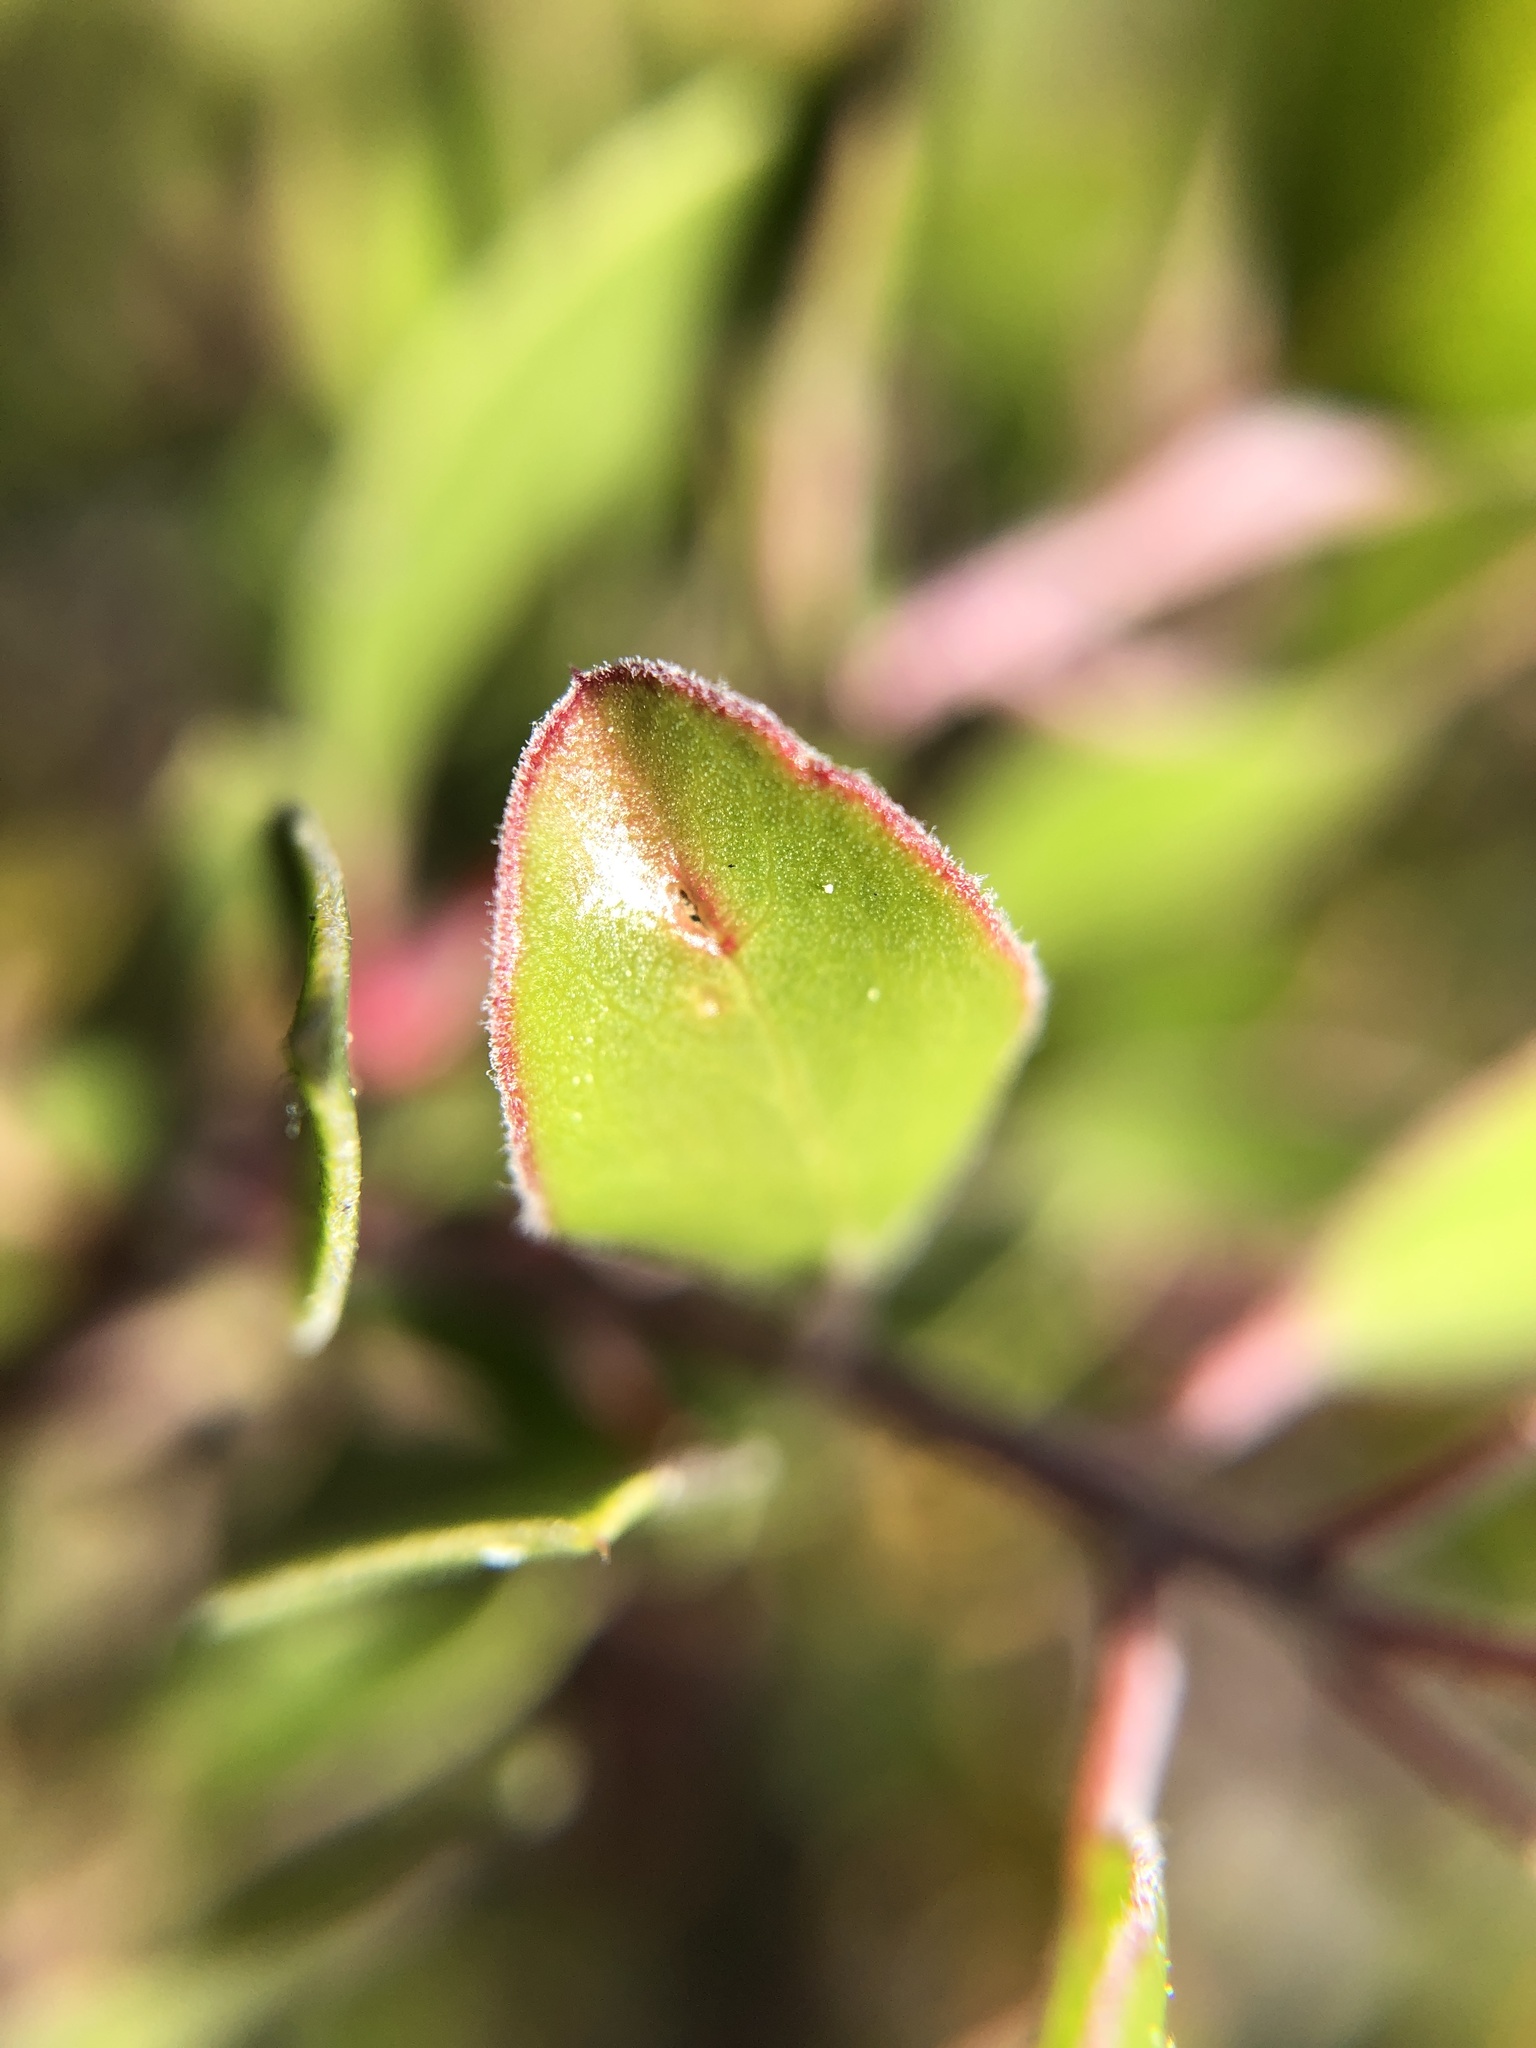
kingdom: Plantae
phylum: Tracheophyta
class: Magnoliopsida
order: Ericales
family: Ericaceae
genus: Arctostaphylos
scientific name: Arctostaphylos hookeri
